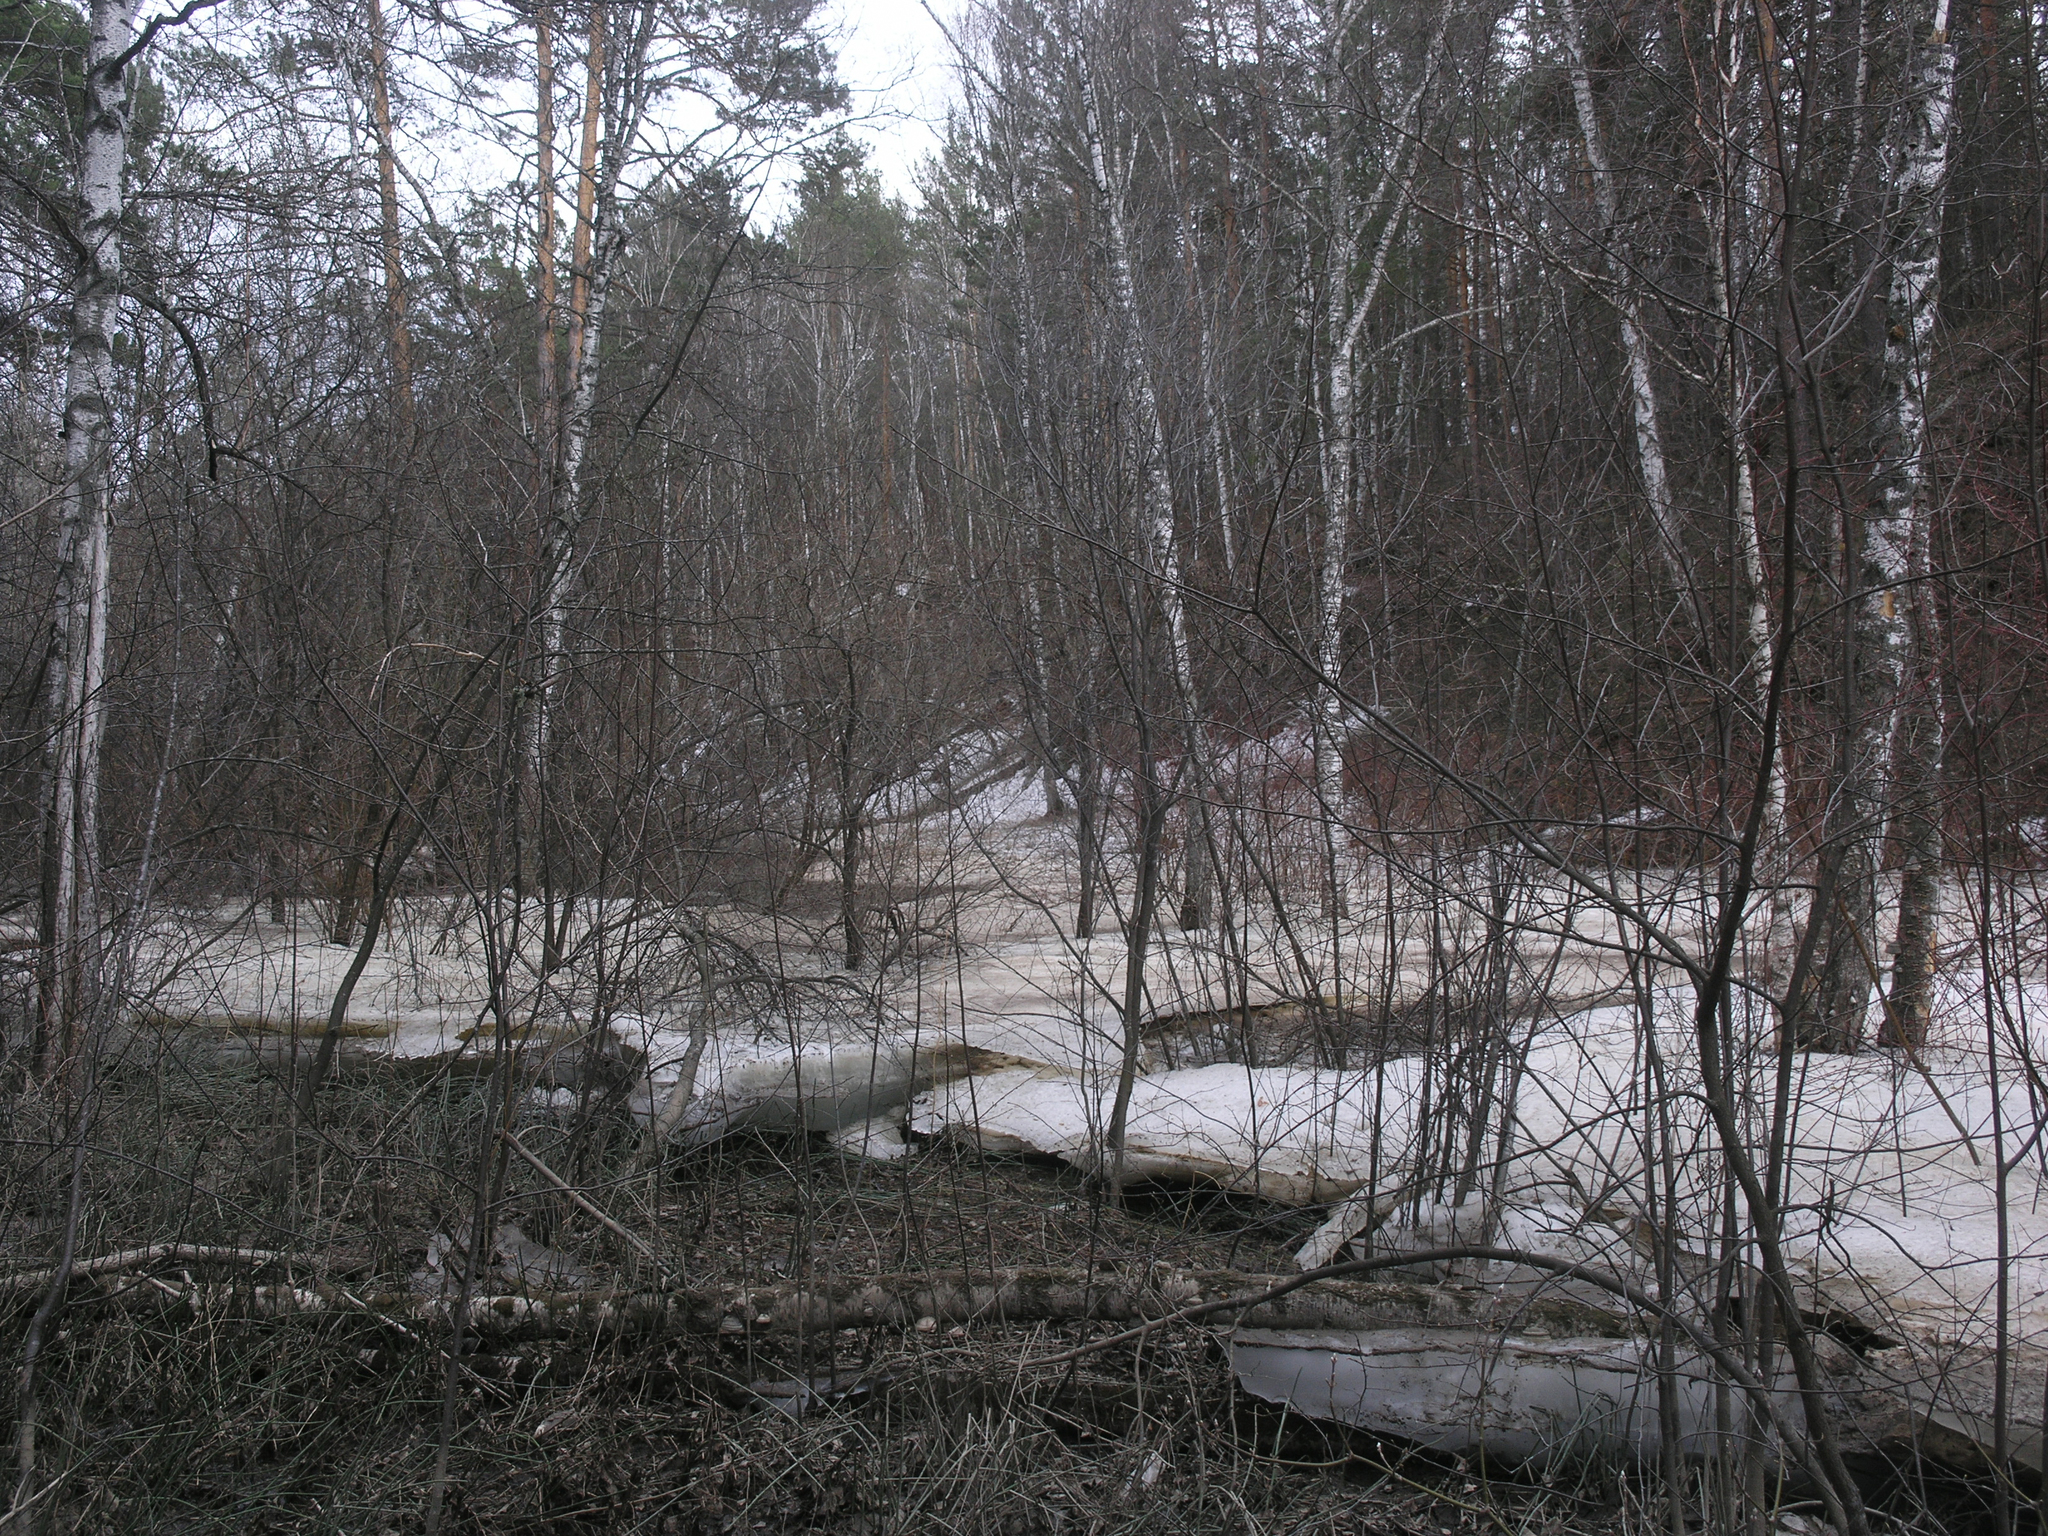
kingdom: Plantae
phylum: Tracheophyta
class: Magnoliopsida
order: Fagales
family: Betulaceae
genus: Betula
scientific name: Betula pendula
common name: Silver birch
